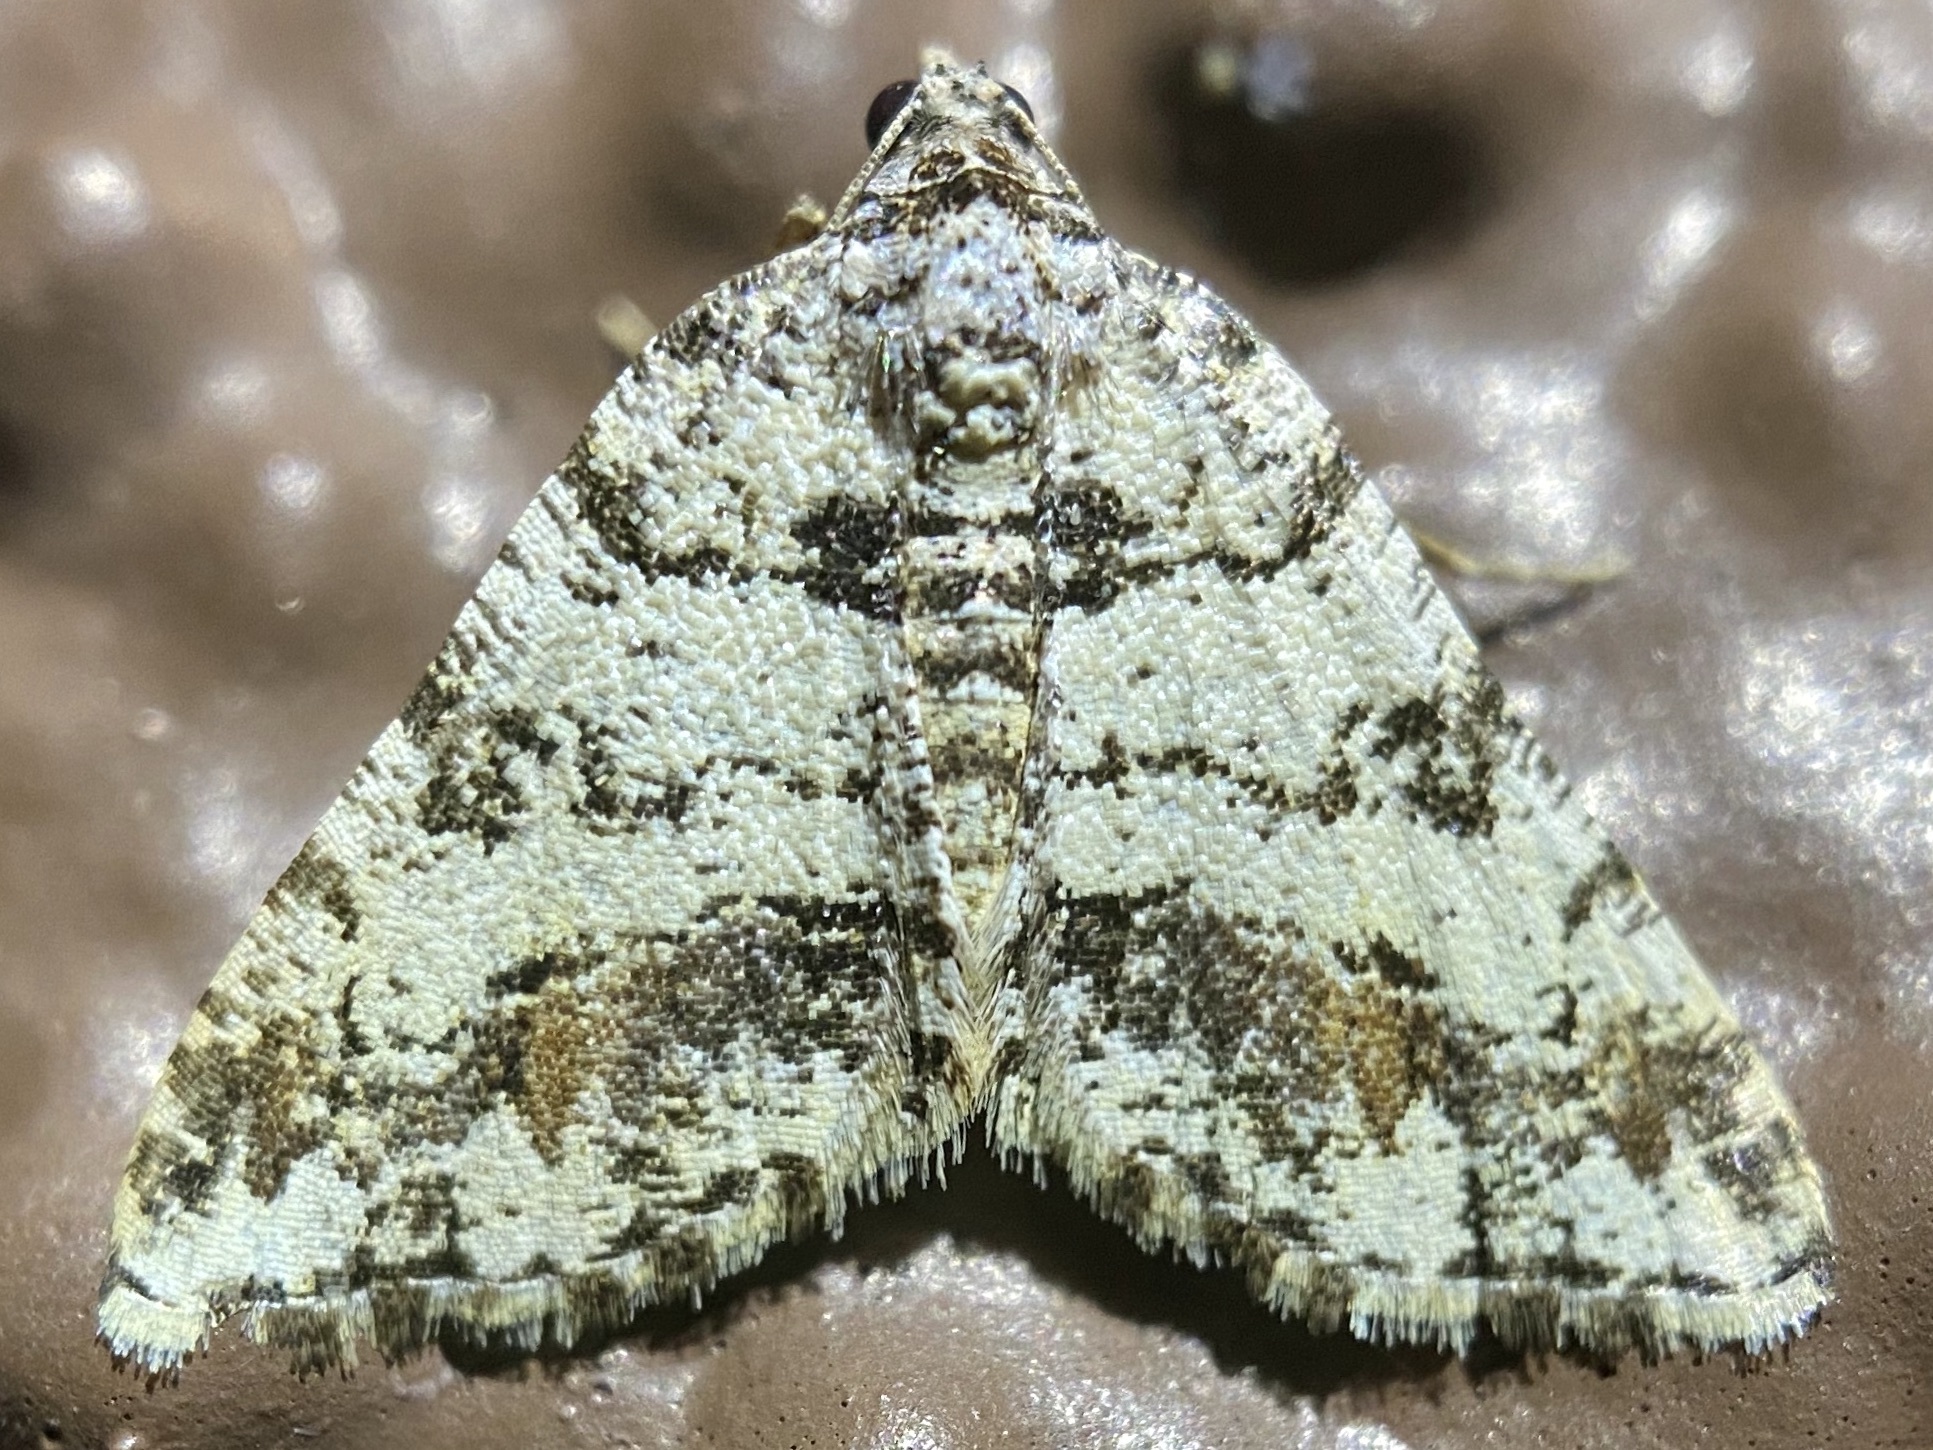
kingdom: Animalia
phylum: Arthropoda
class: Insecta
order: Lepidoptera
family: Geometridae
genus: Macaria
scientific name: Macaria deceptrix
